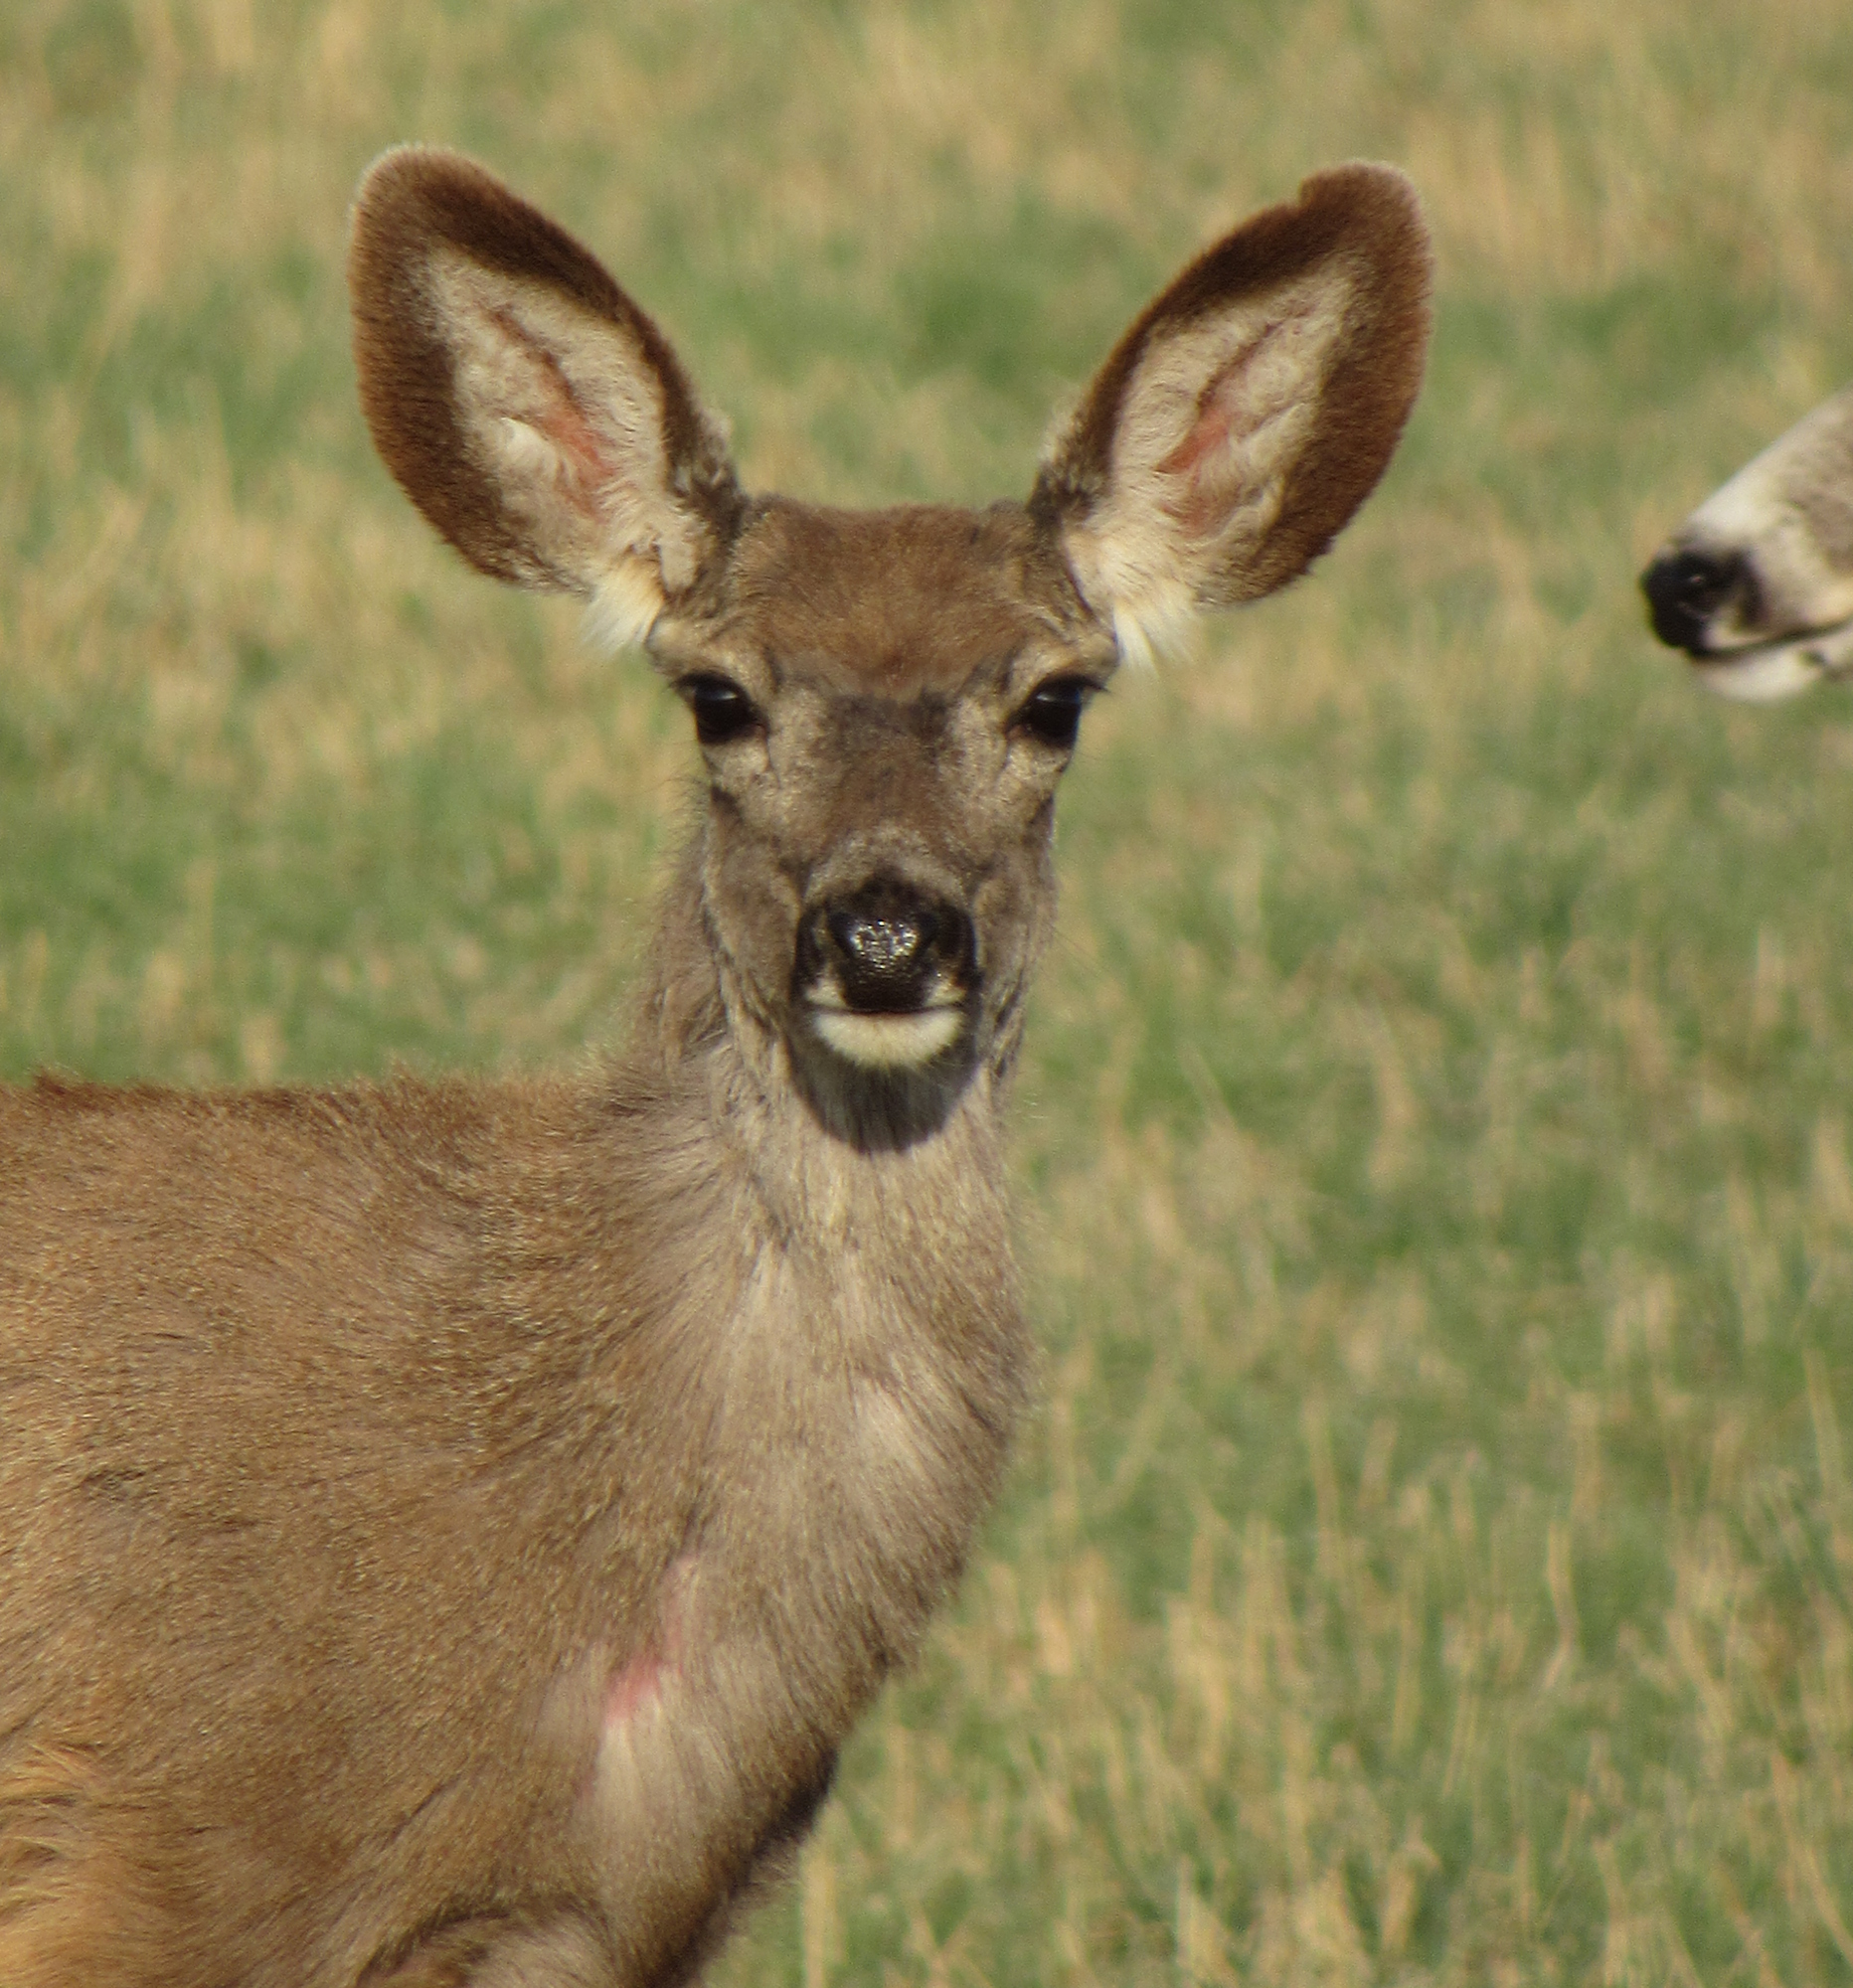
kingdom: Animalia
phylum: Chordata
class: Mammalia
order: Artiodactyla
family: Cervidae
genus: Odocoileus
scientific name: Odocoileus hemionus
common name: Mule deer
